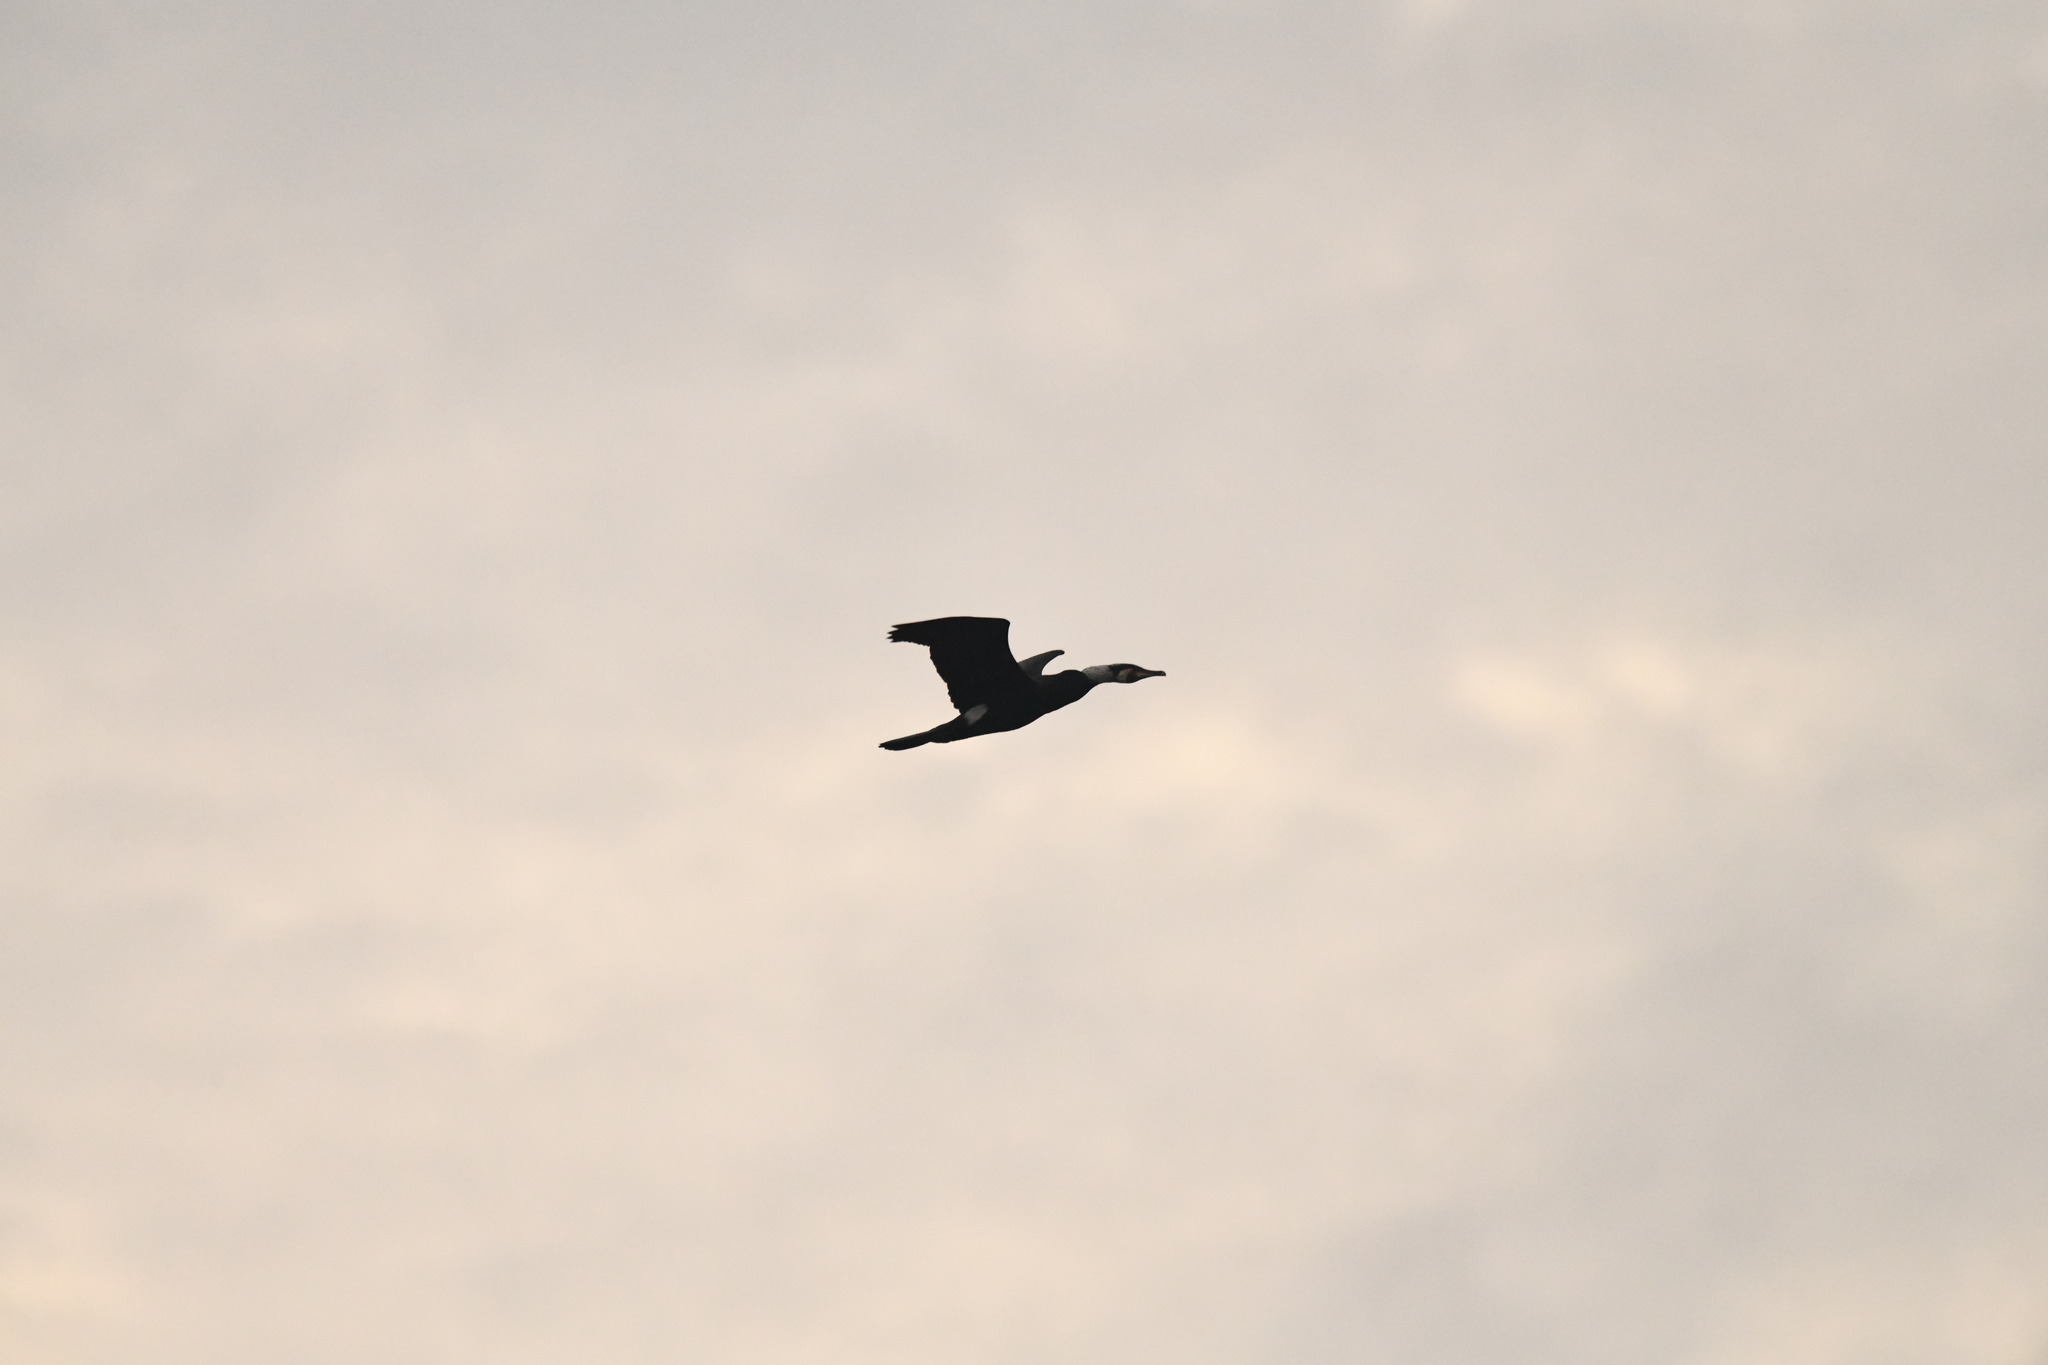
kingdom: Animalia
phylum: Chordata
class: Aves
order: Suliformes
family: Phalacrocoracidae
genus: Phalacrocorax
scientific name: Phalacrocorax carbo
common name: Great cormorant
